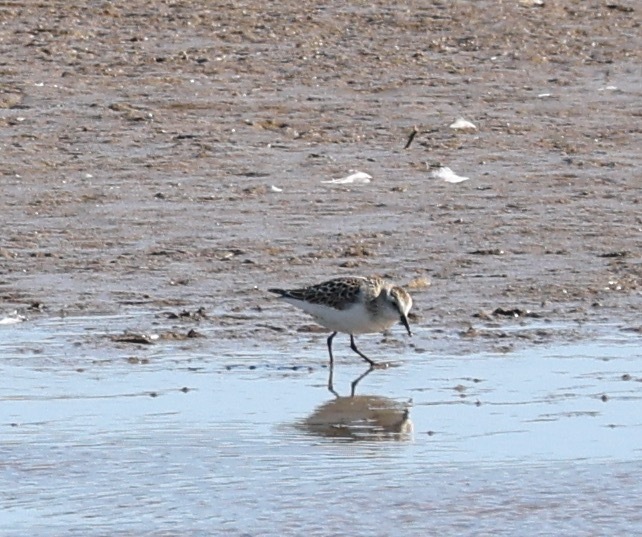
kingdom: Animalia
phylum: Chordata
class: Aves
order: Charadriiformes
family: Scolopacidae
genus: Calidris
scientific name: Calidris minuta
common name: Little stint
